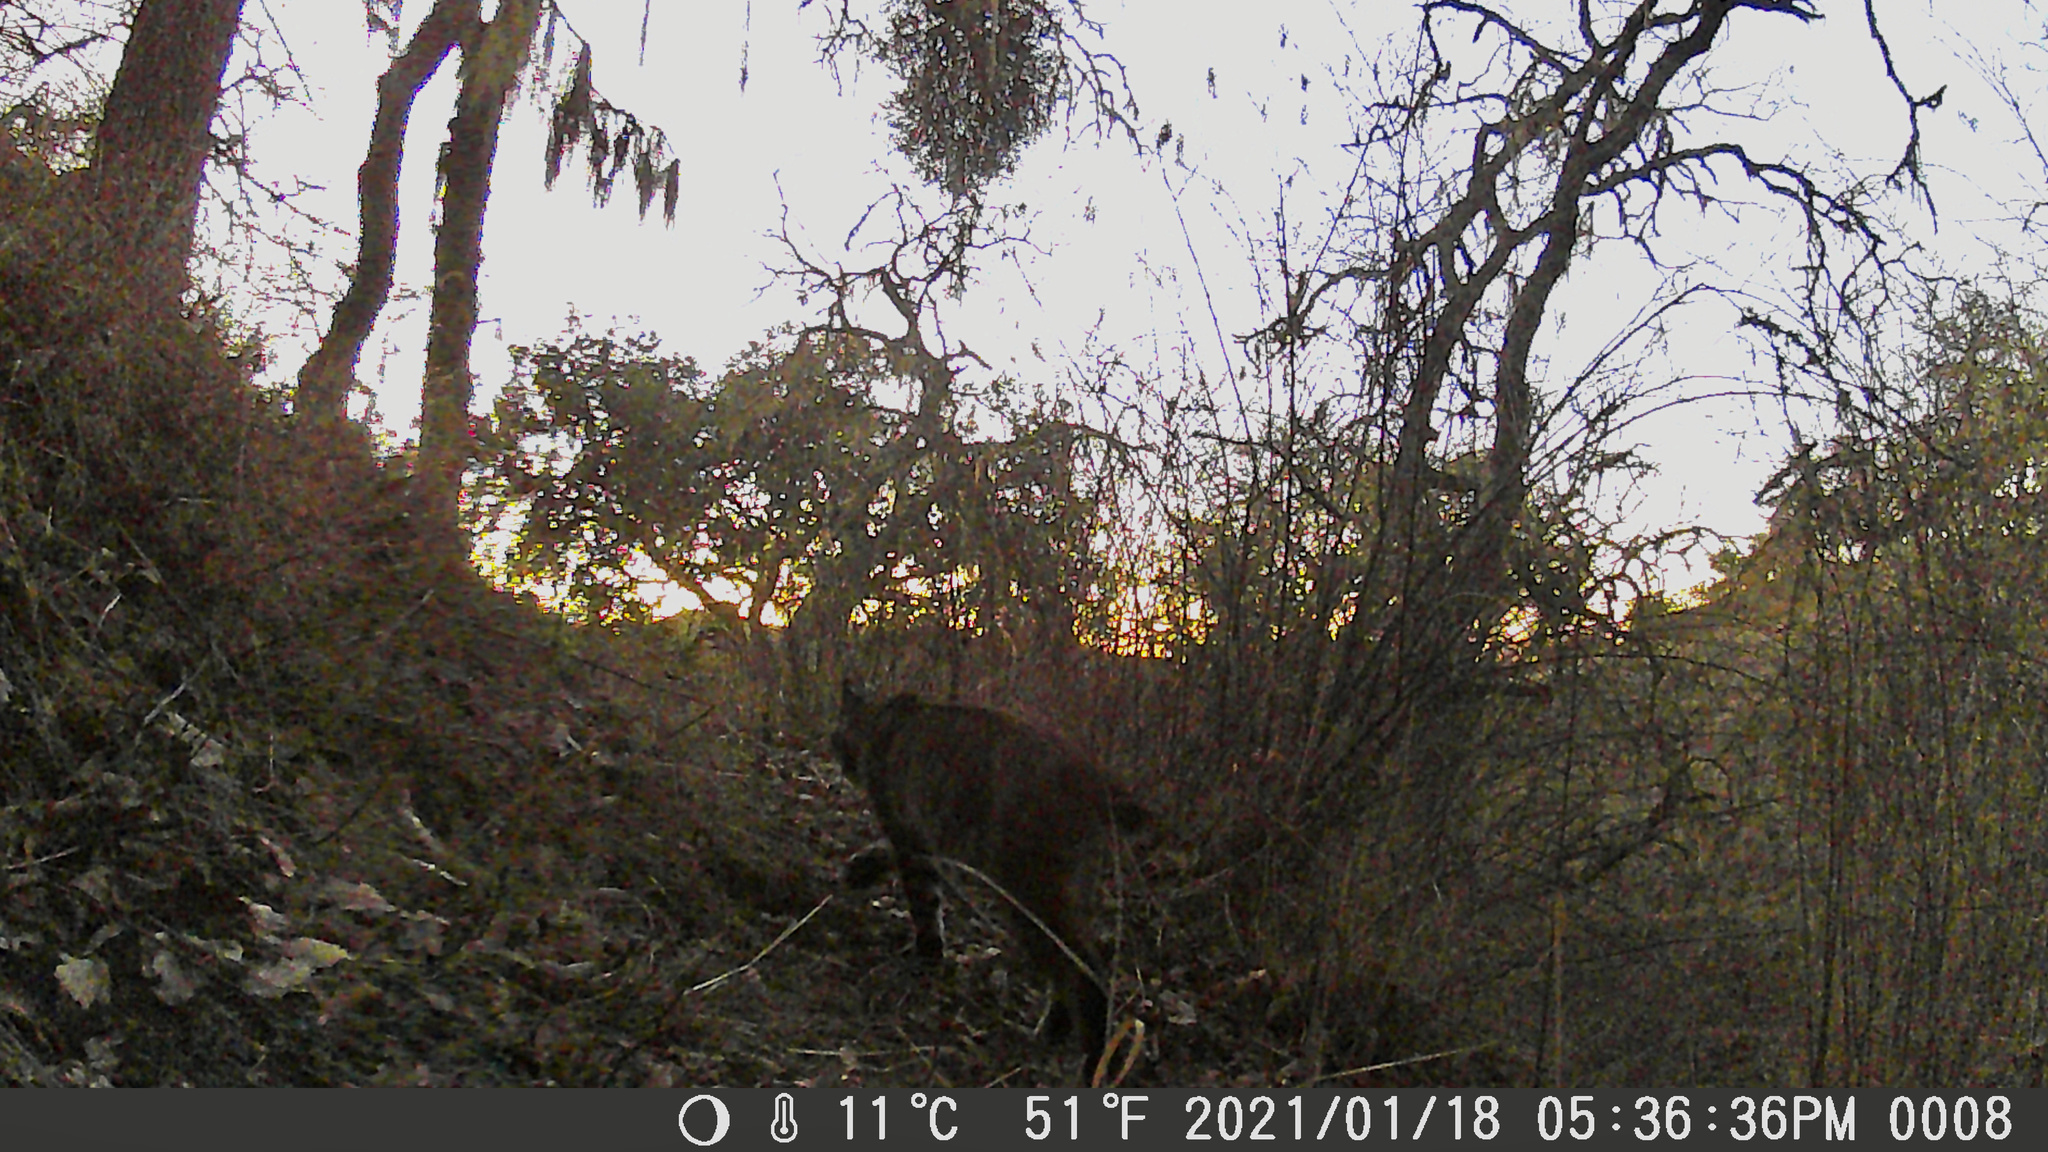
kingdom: Animalia
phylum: Chordata
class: Mammalia
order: Carnivora
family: Felidae
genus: Lynx
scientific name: Lynx rufus
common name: Bobcat
